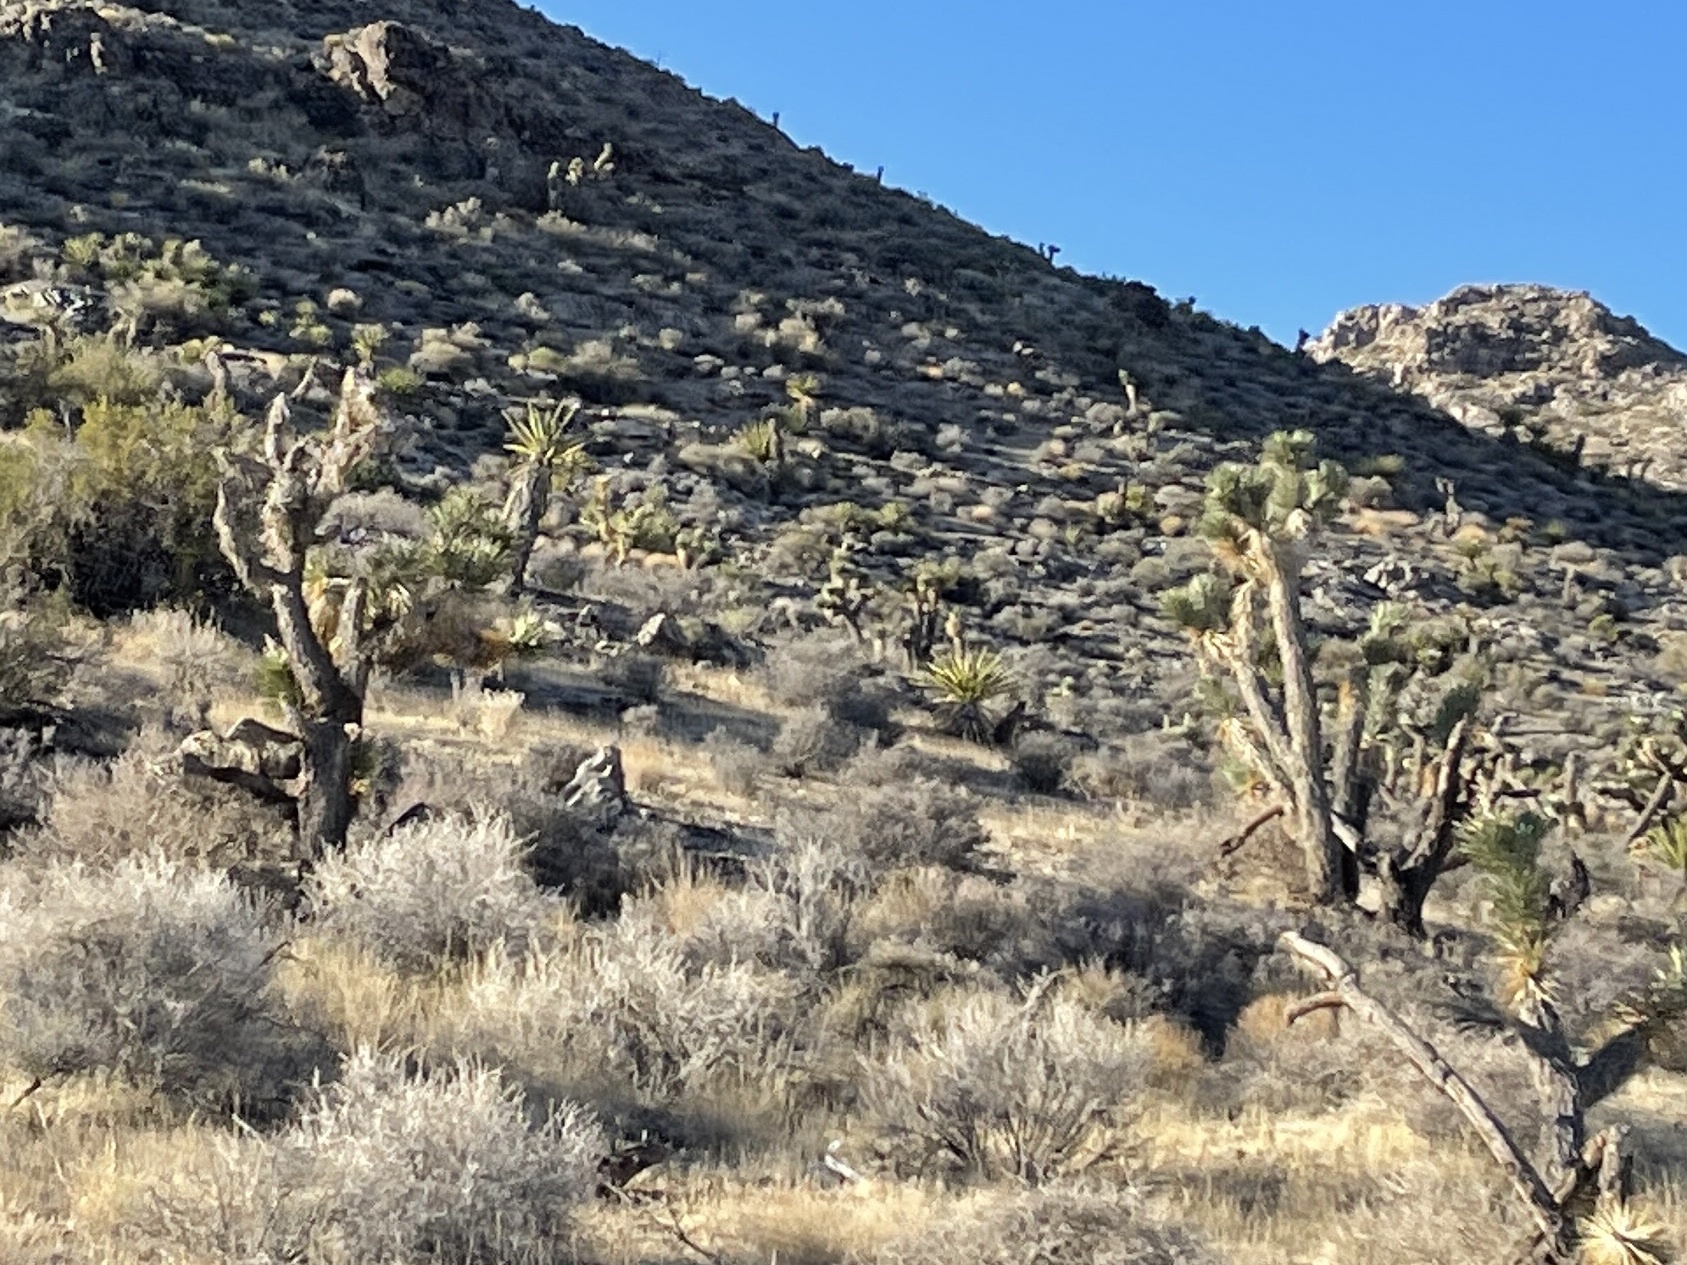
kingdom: Plantae
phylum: Tracheophyta
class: Liliopsida
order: Asparagales
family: Asparagaceae
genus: Yucca
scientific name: Yucca brevifolia
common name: Joshua tree
